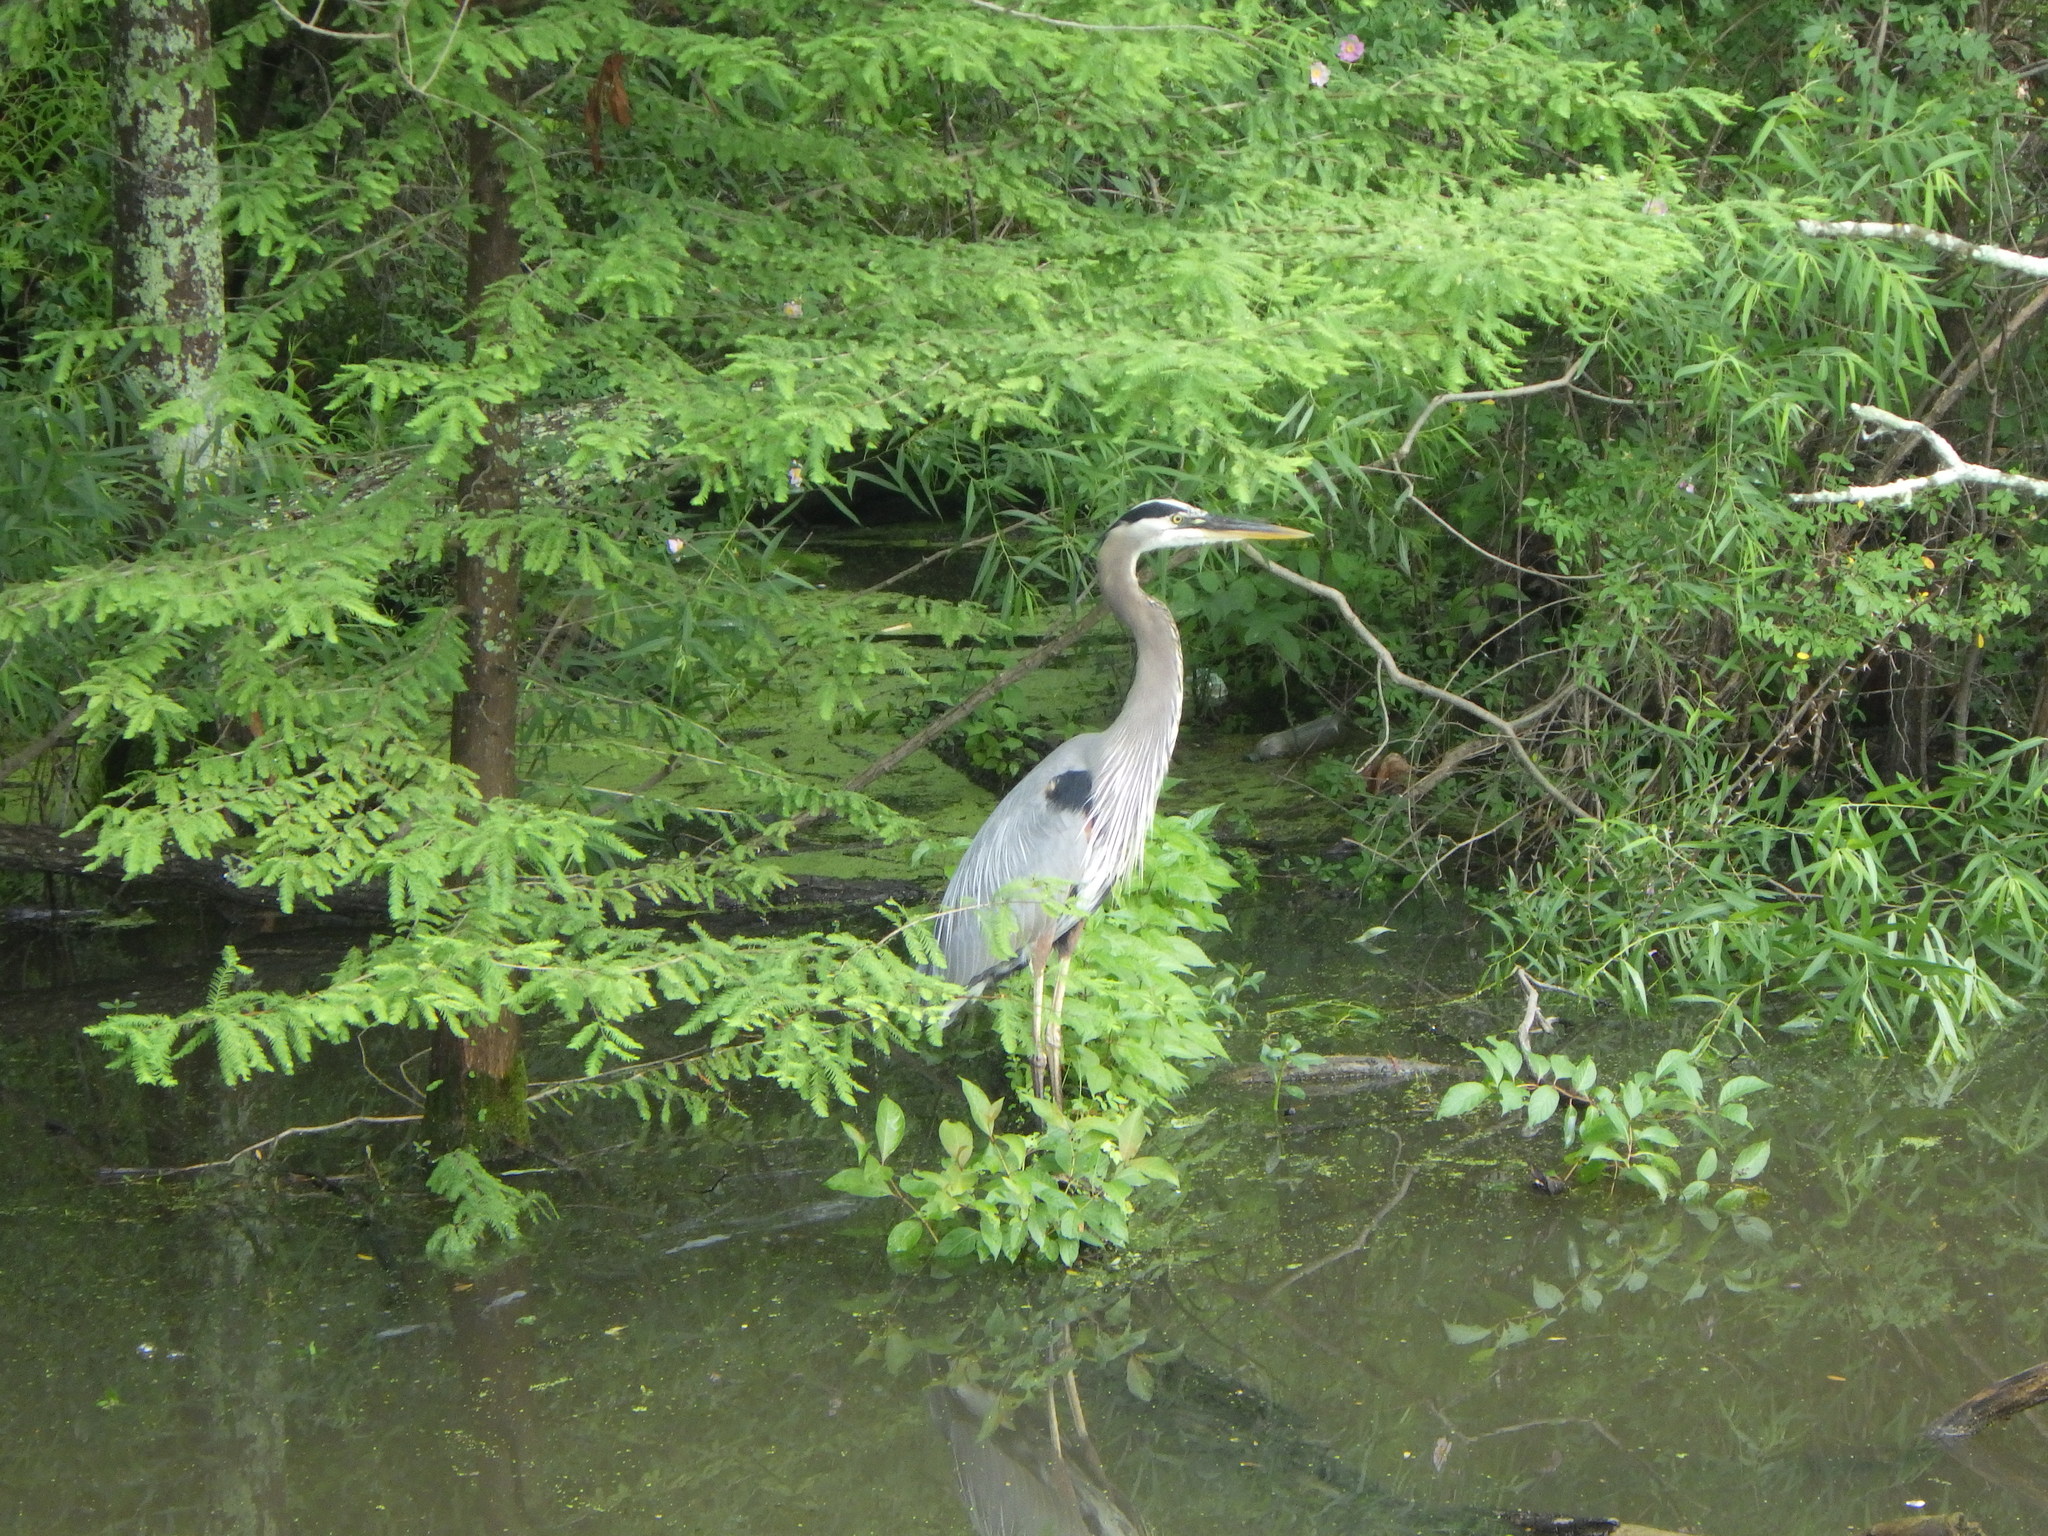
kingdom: Animalia
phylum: Chordata
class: Aves
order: Pelecaniformes
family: Ardeidae
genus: Ardea
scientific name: Ardea herodias
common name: Great blue heron
